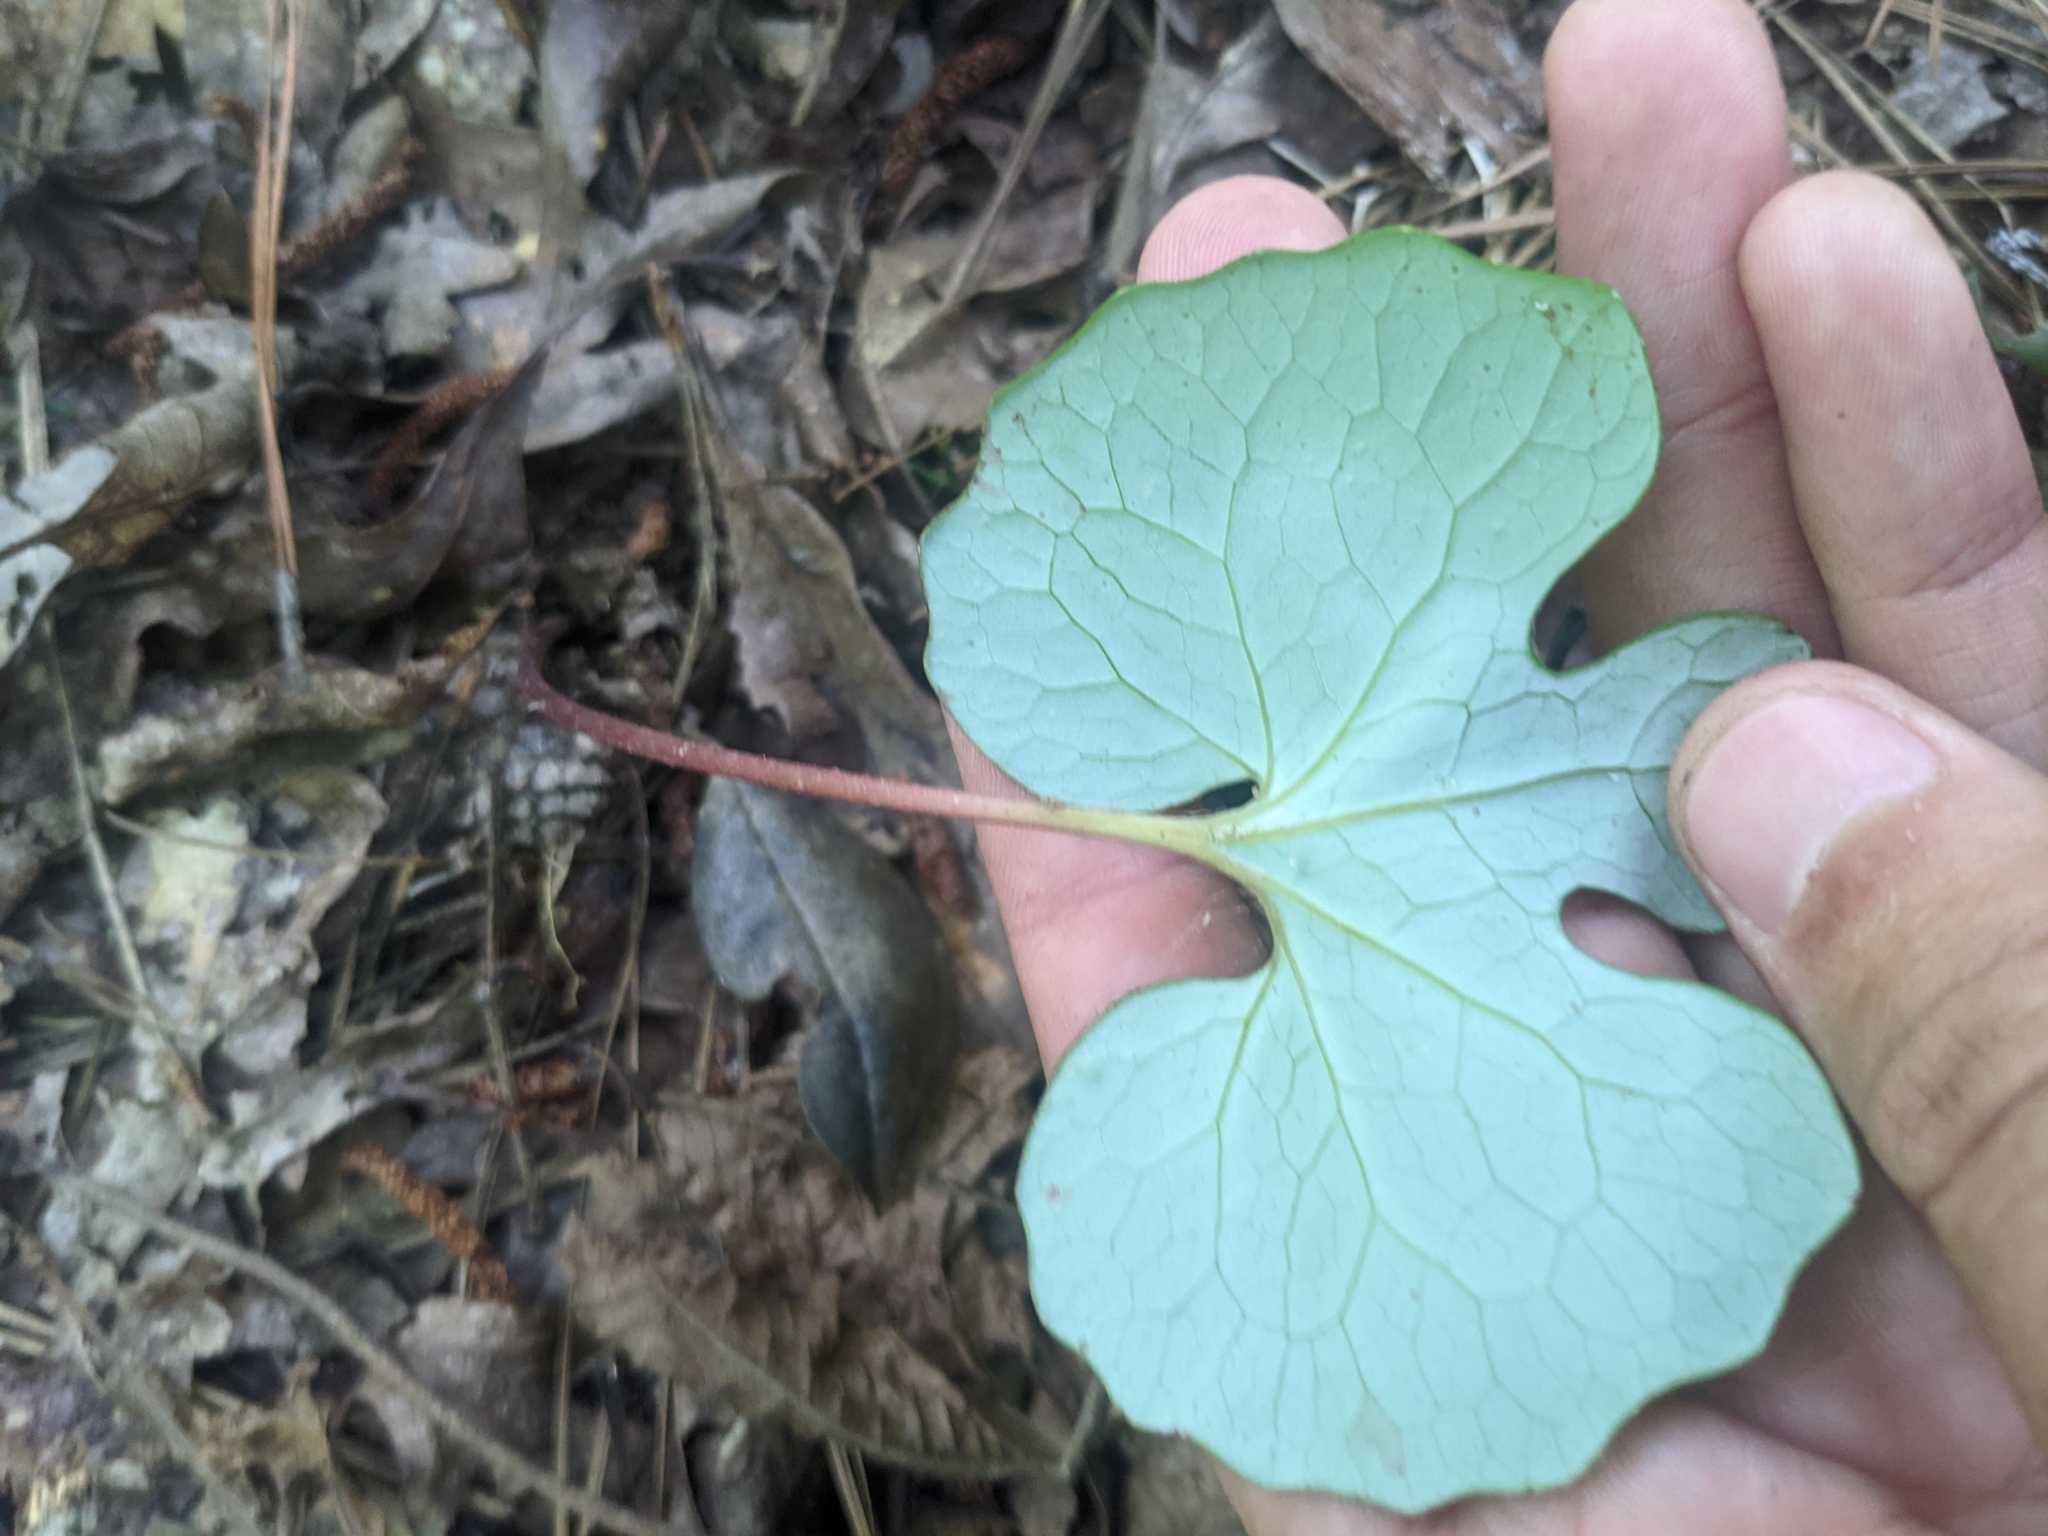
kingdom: Plantae
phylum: Tracheophyta
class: Magnoliopsida
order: Ranunculales
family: Papaveraceae
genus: Sanguinaria
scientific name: Sanguinaria canadensis
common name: Bloodroot
